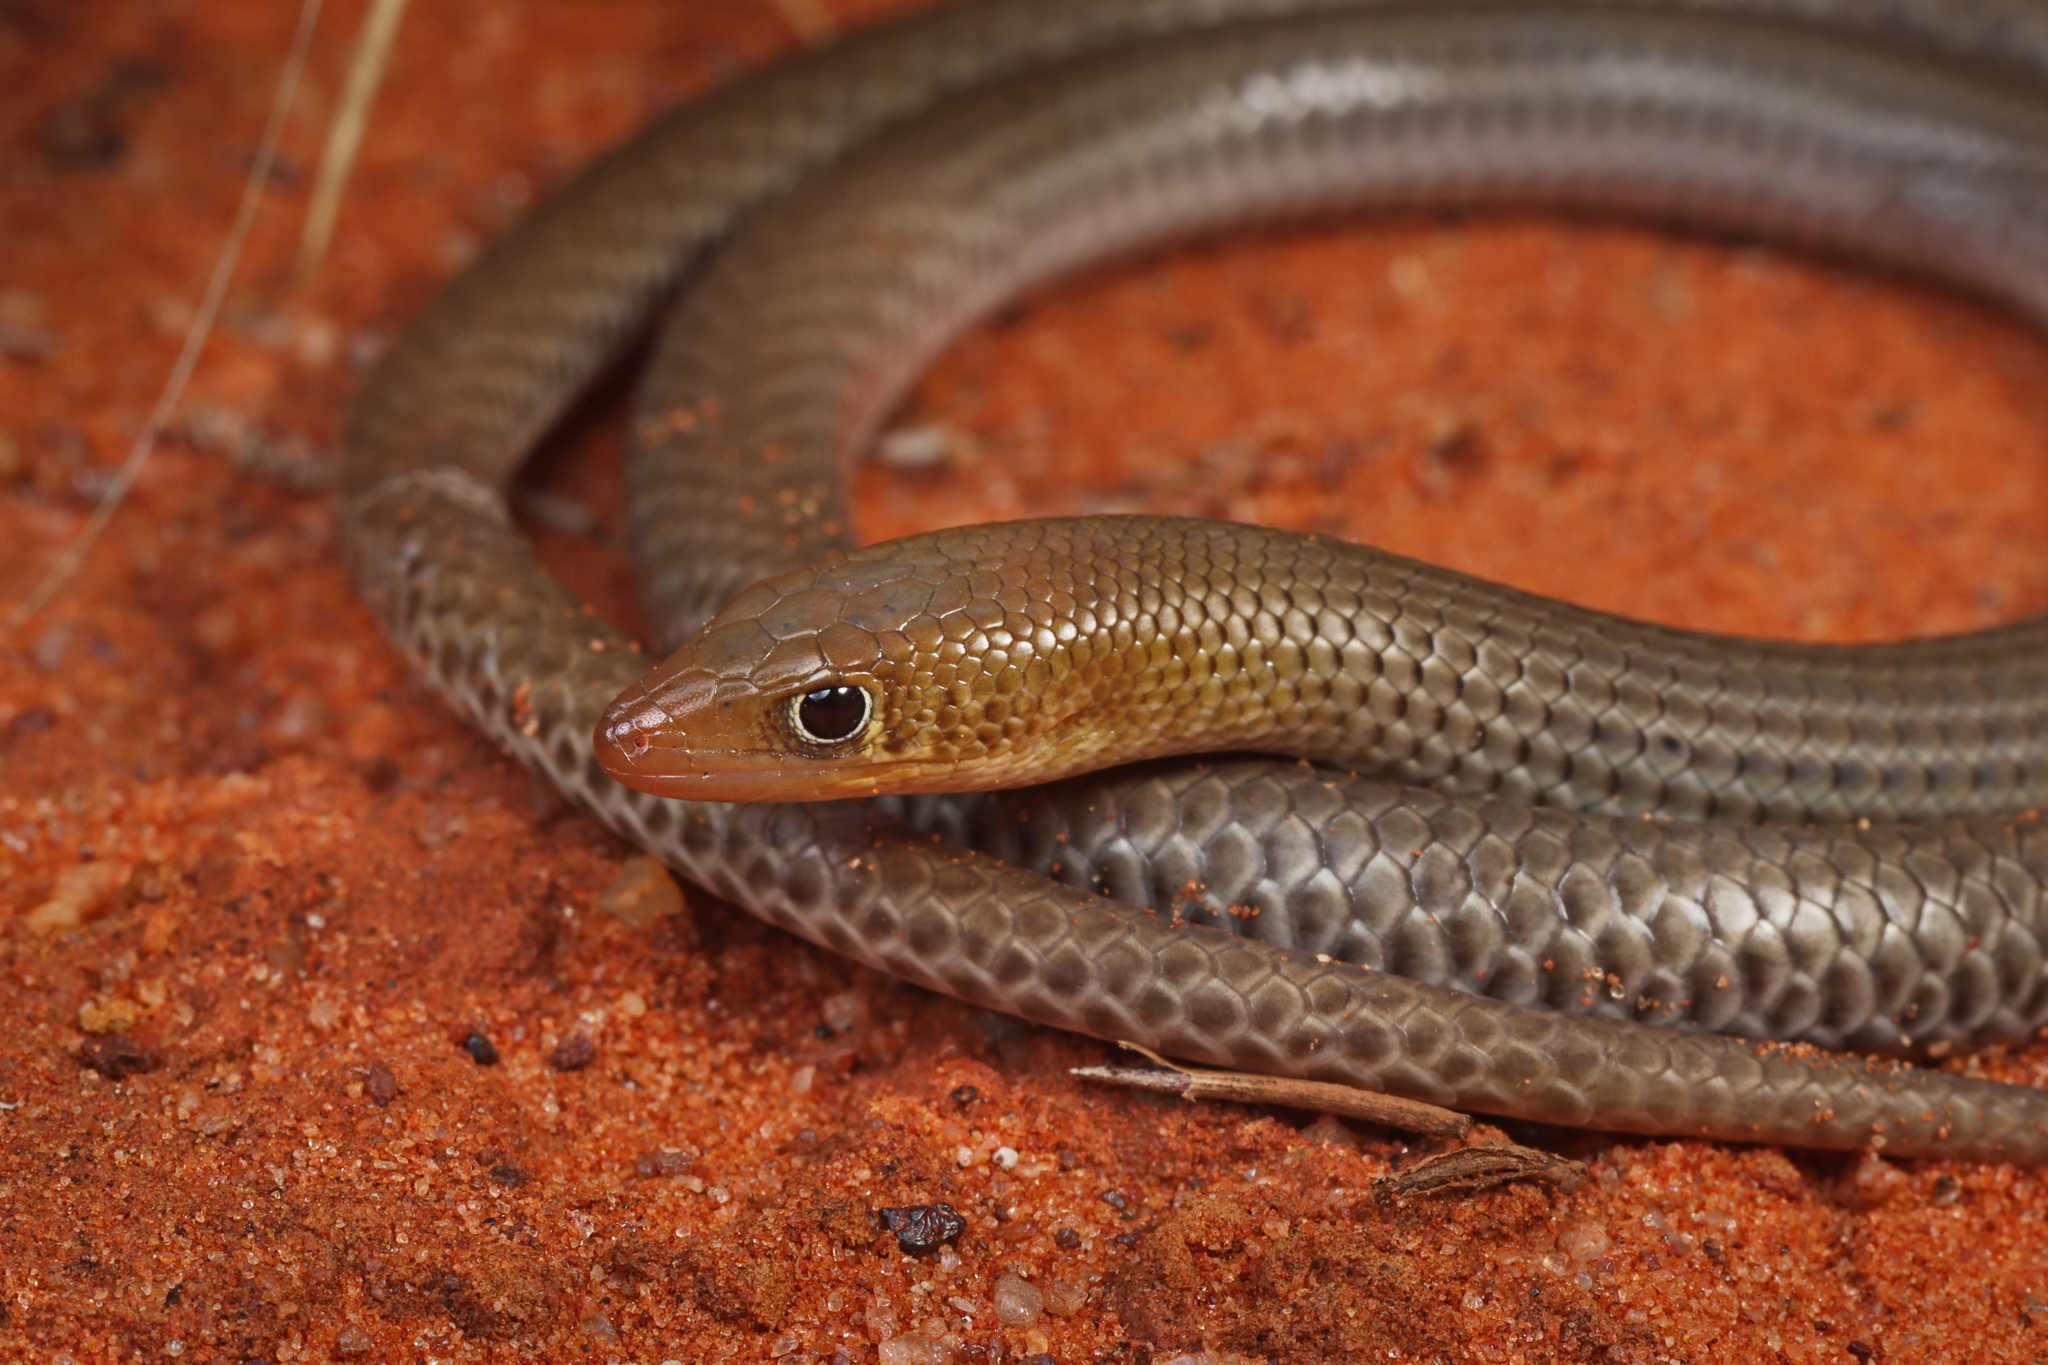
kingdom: Animalia
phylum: Chordata
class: Squamata
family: Pygopodidae
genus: Delma
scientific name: Delma nasuta
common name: Sharp-snouted delma
